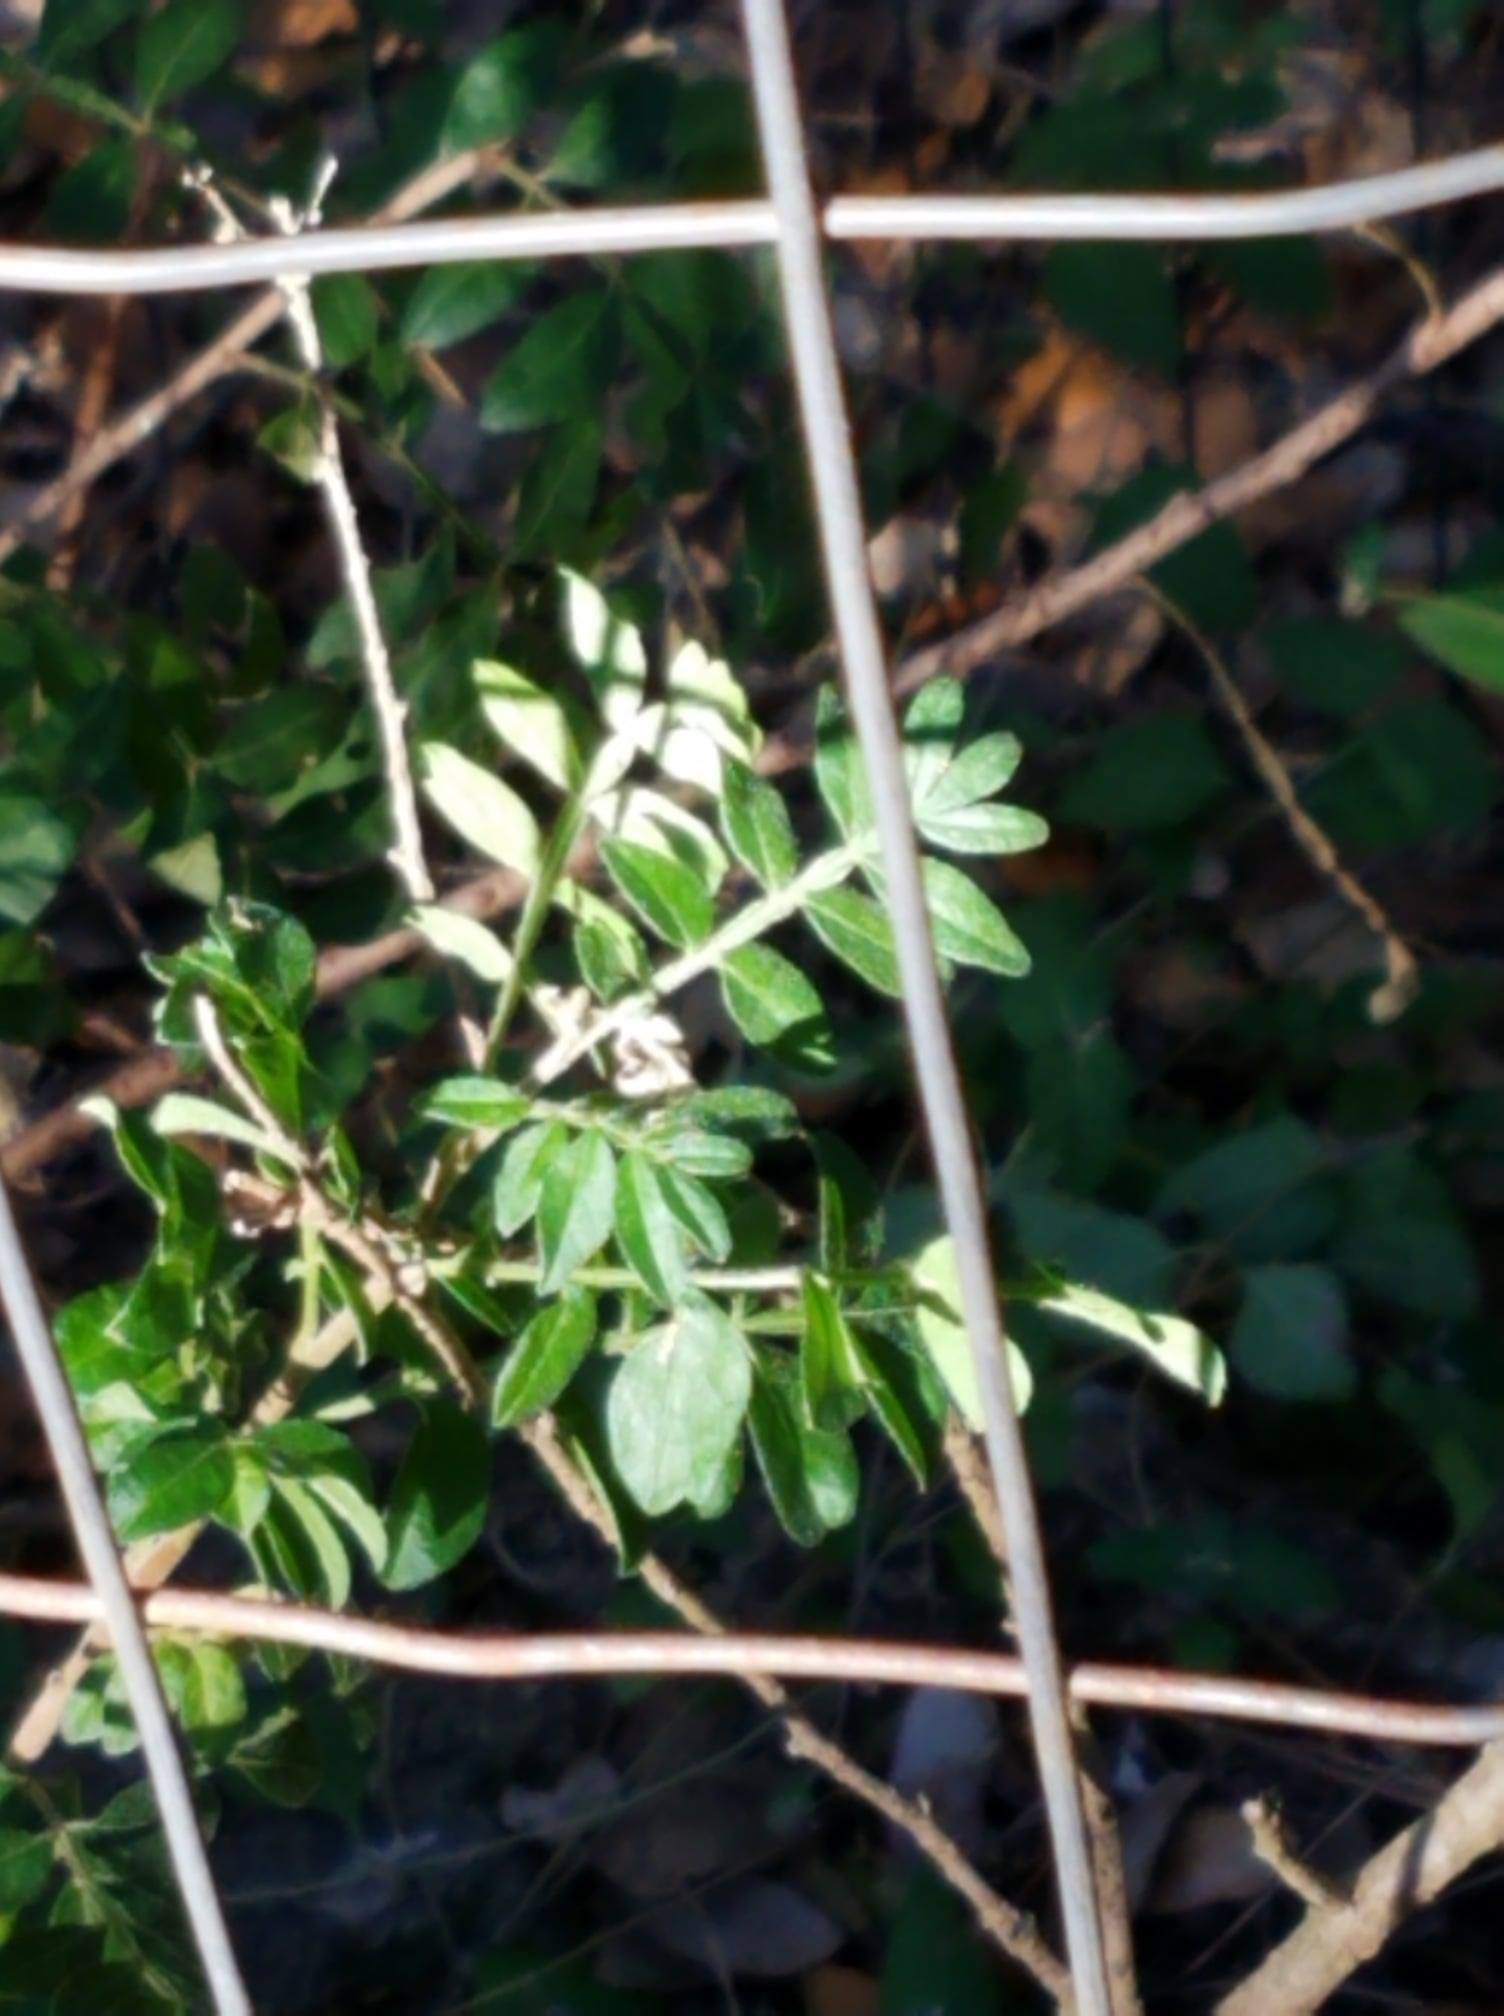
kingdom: Plantae
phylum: Tracheophyta
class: Magnoliopsida
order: Sapindales
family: Anacardiaceae
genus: Rhus
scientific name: Rhus microphylla
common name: Desert sumac
